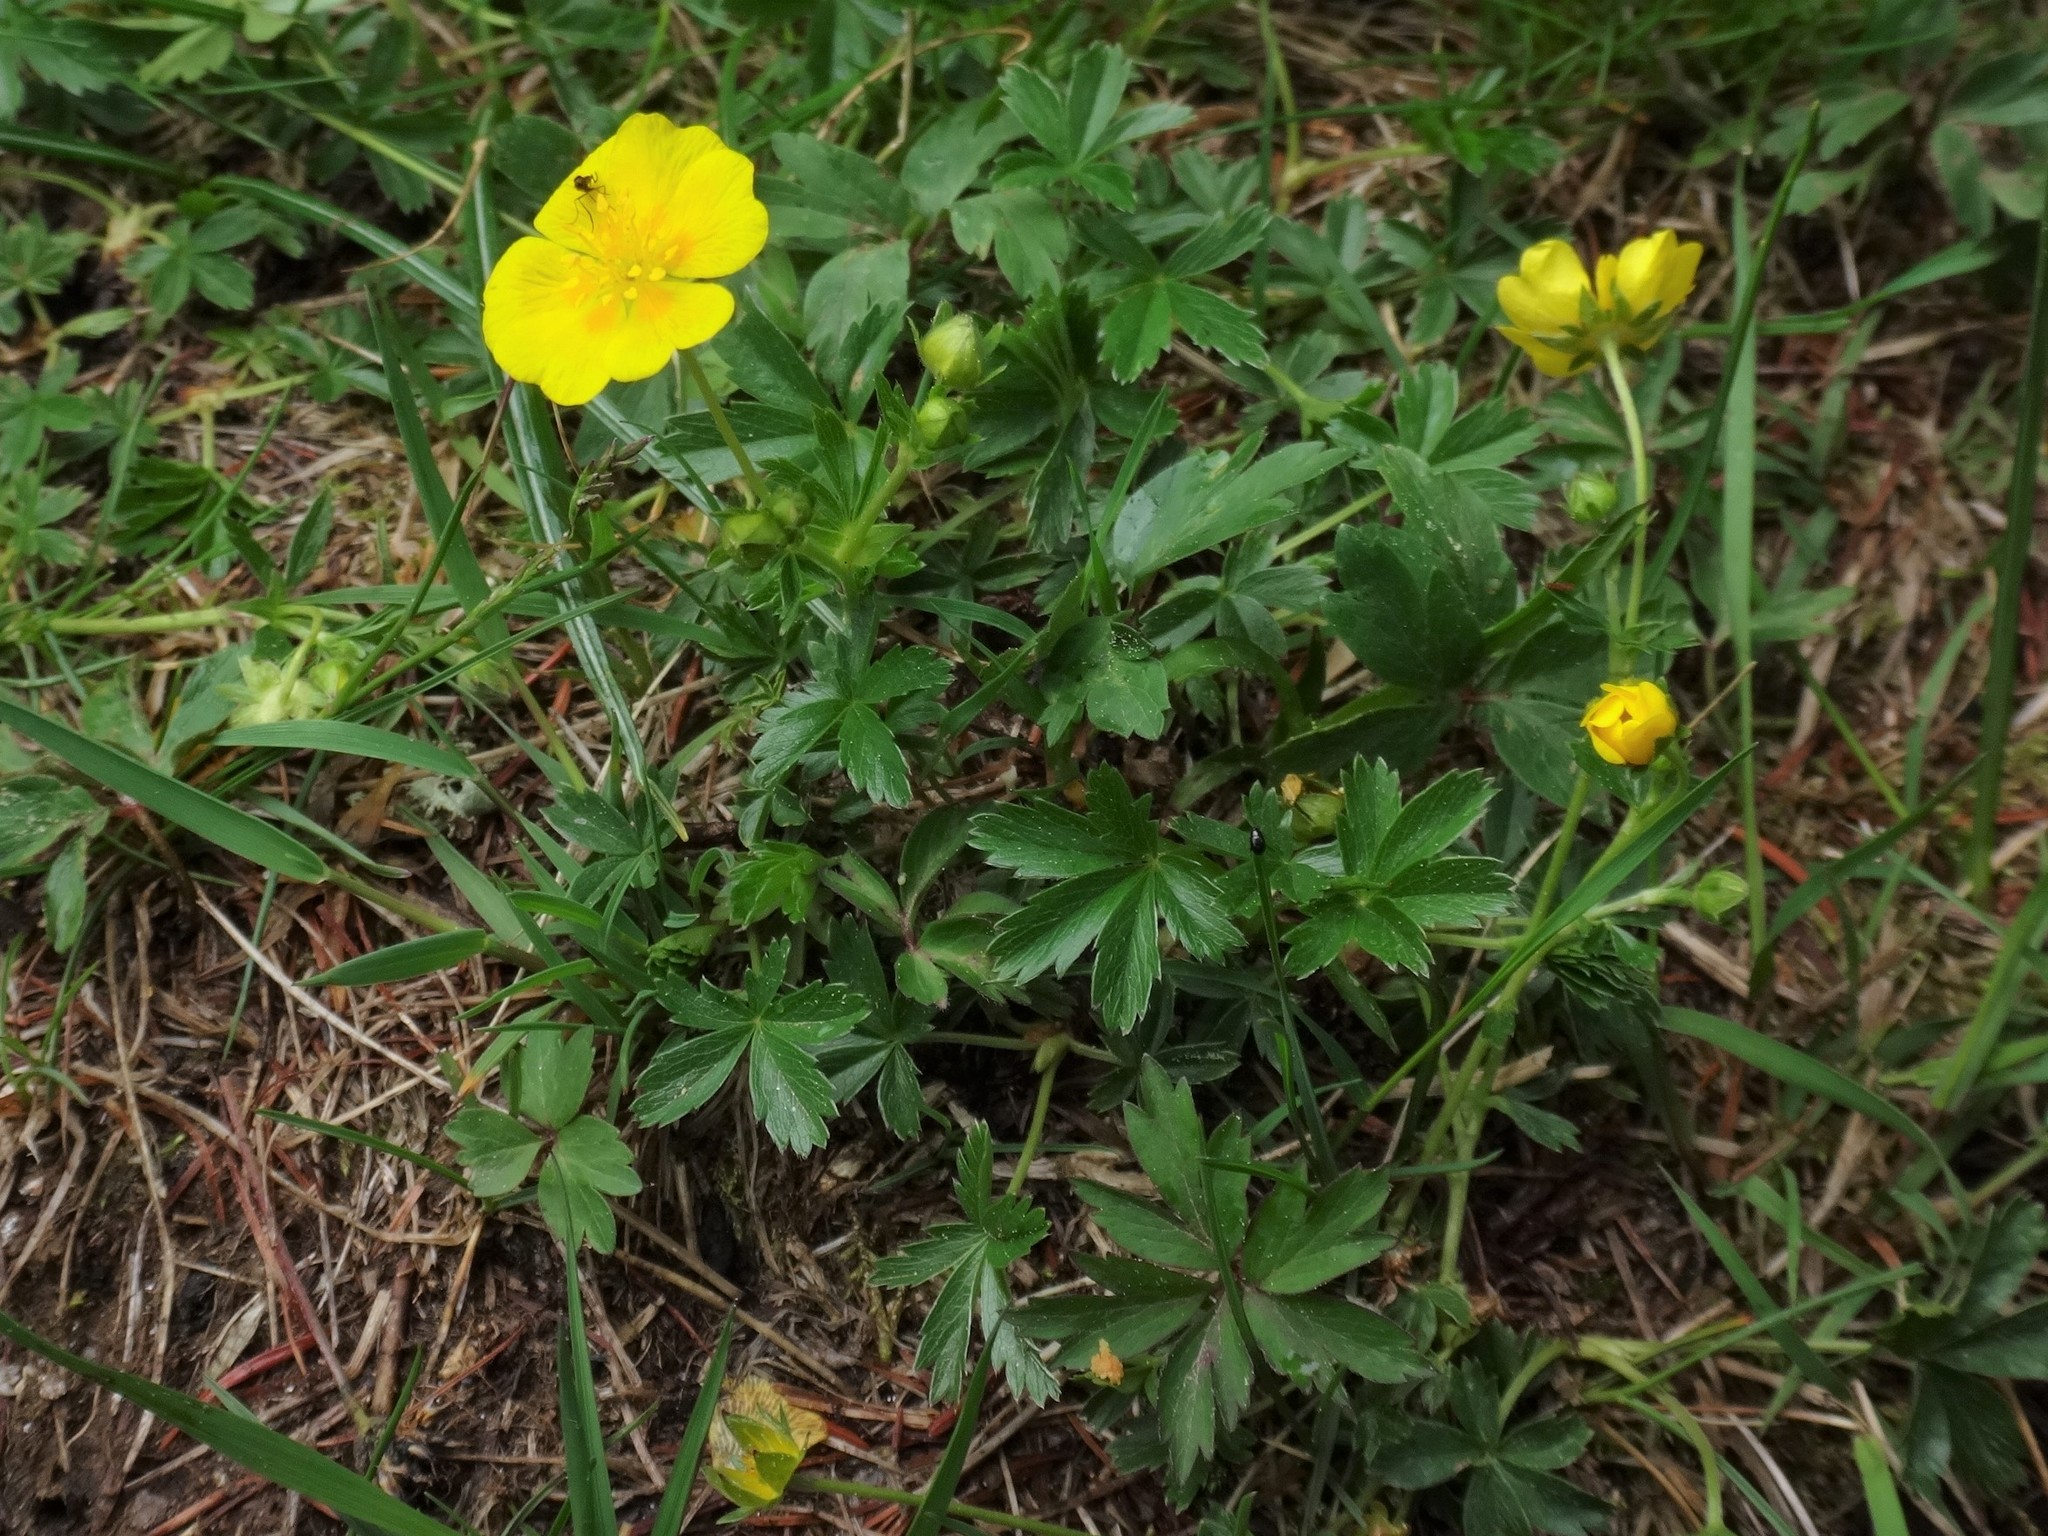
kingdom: Plantae
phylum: Tracheophyta
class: Magnoliopsida
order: Rosales
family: Rosaceae
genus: Potentilla
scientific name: Potentilla aurea
